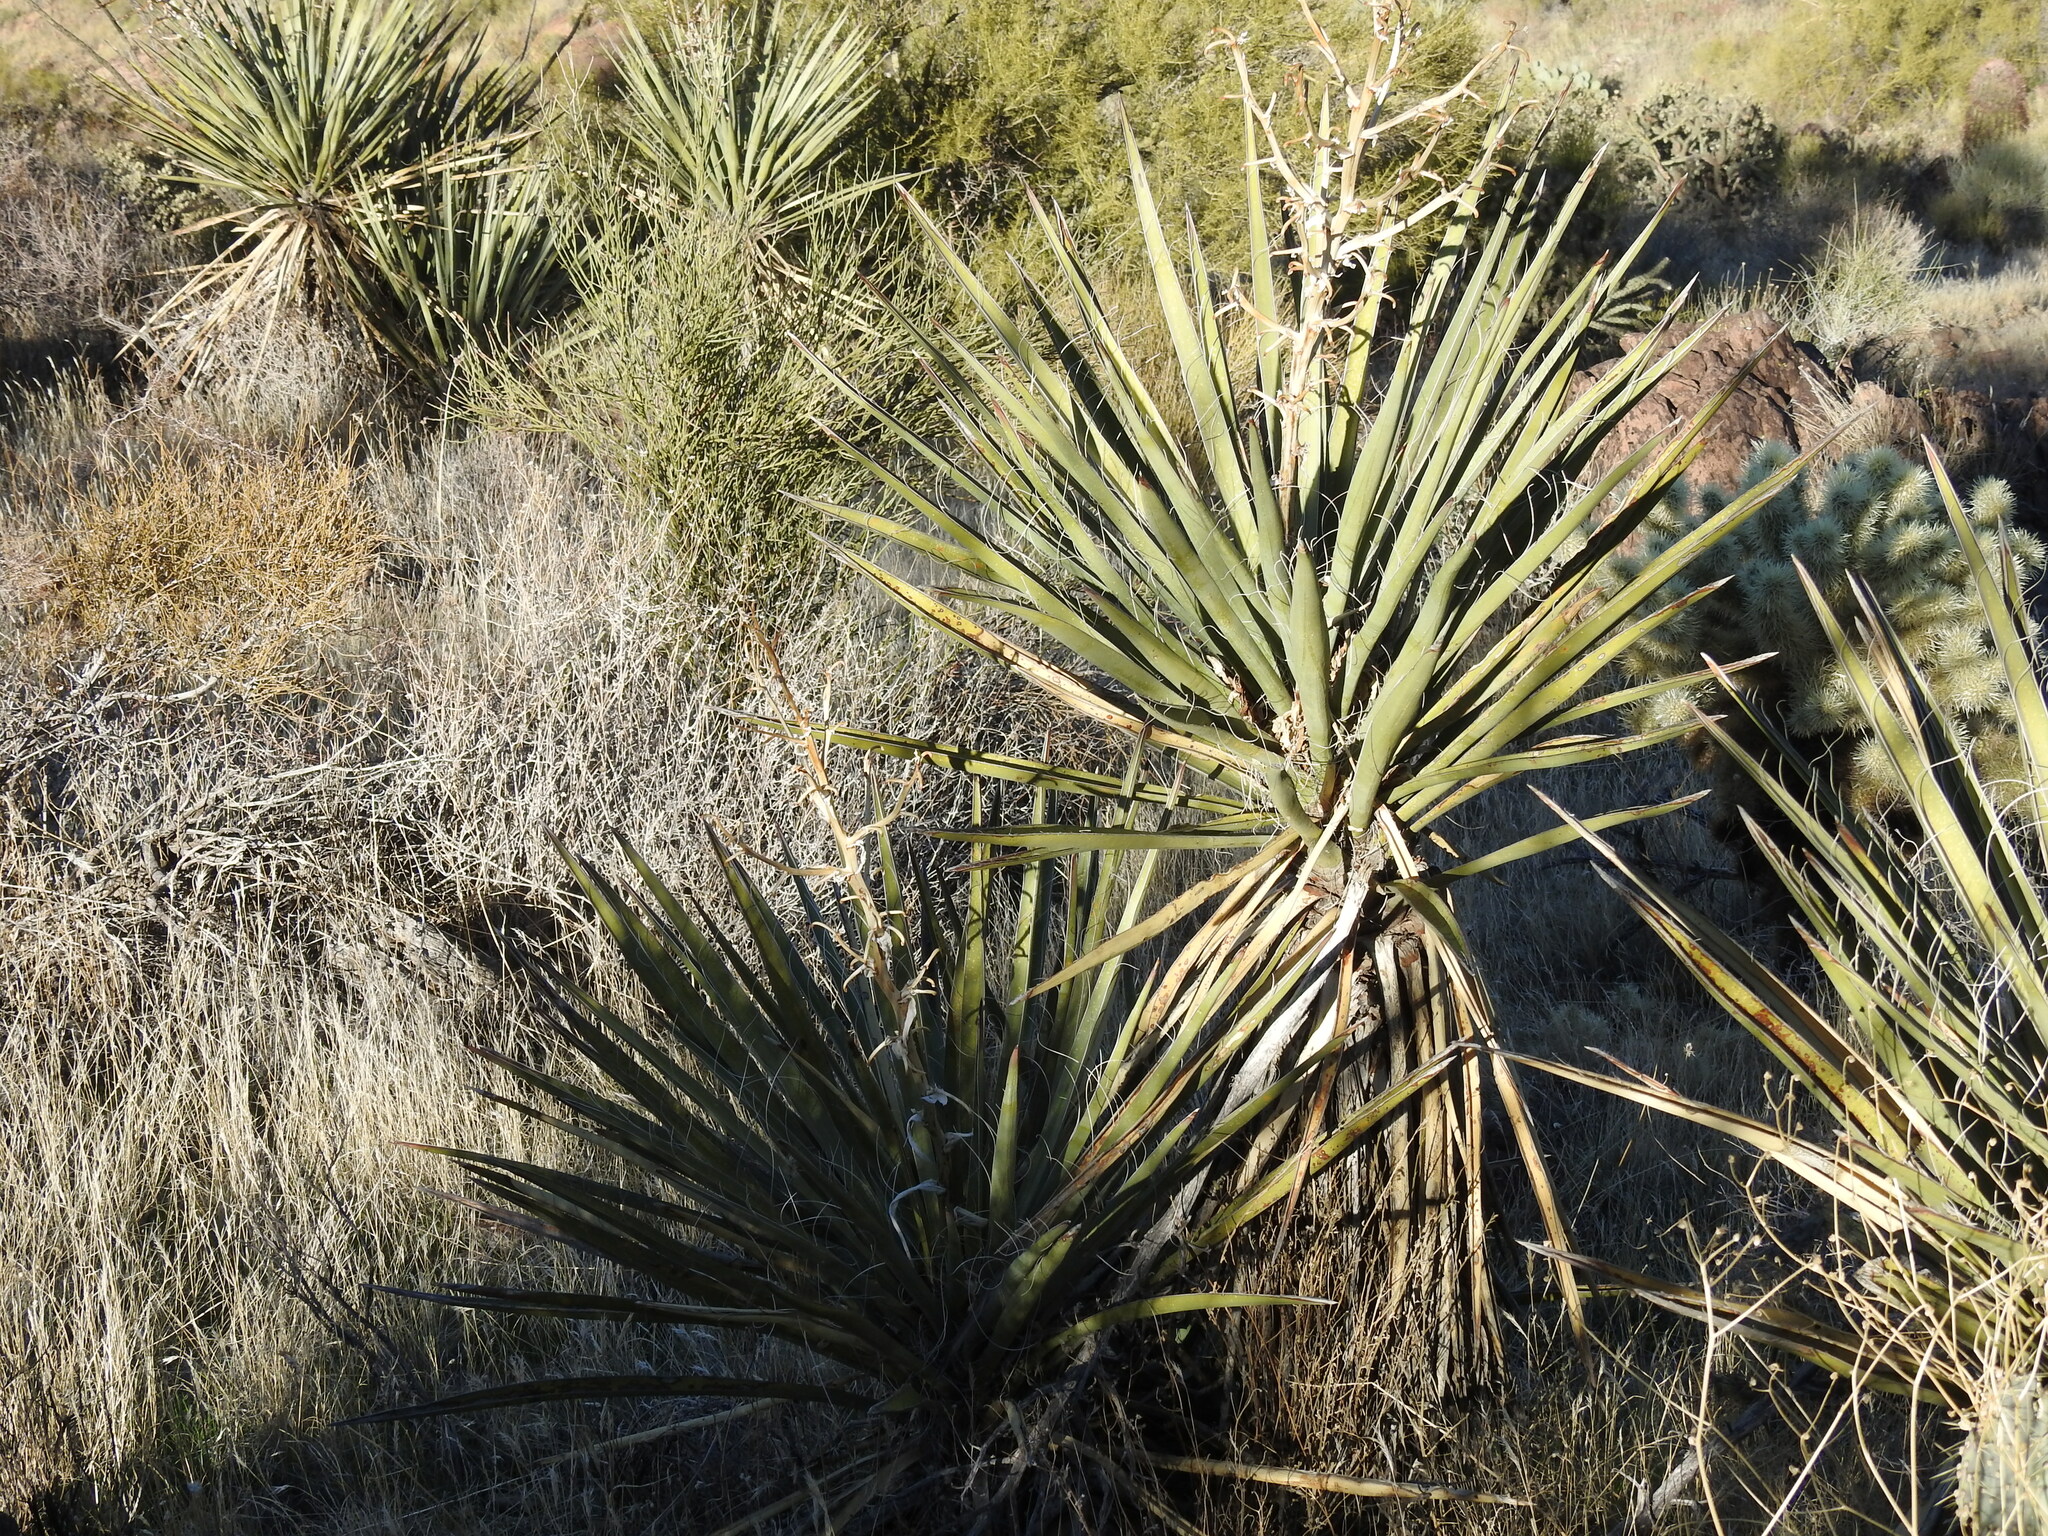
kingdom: Plantae
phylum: Tracheophyta
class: Liliopsida
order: Asparagales
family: Asparagaceae
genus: Yucca
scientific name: Yucca baccata
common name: Banana yucca
